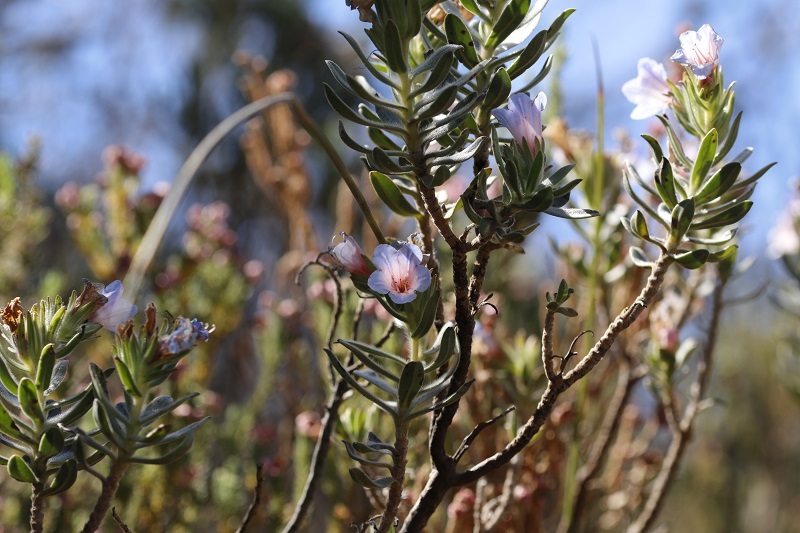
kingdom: Plantae
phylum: Tracheophyta
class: Magnoliopsida
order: Boraginales
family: Boraginaceae
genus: Lobostemon
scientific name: Lobostemon fruticosus
